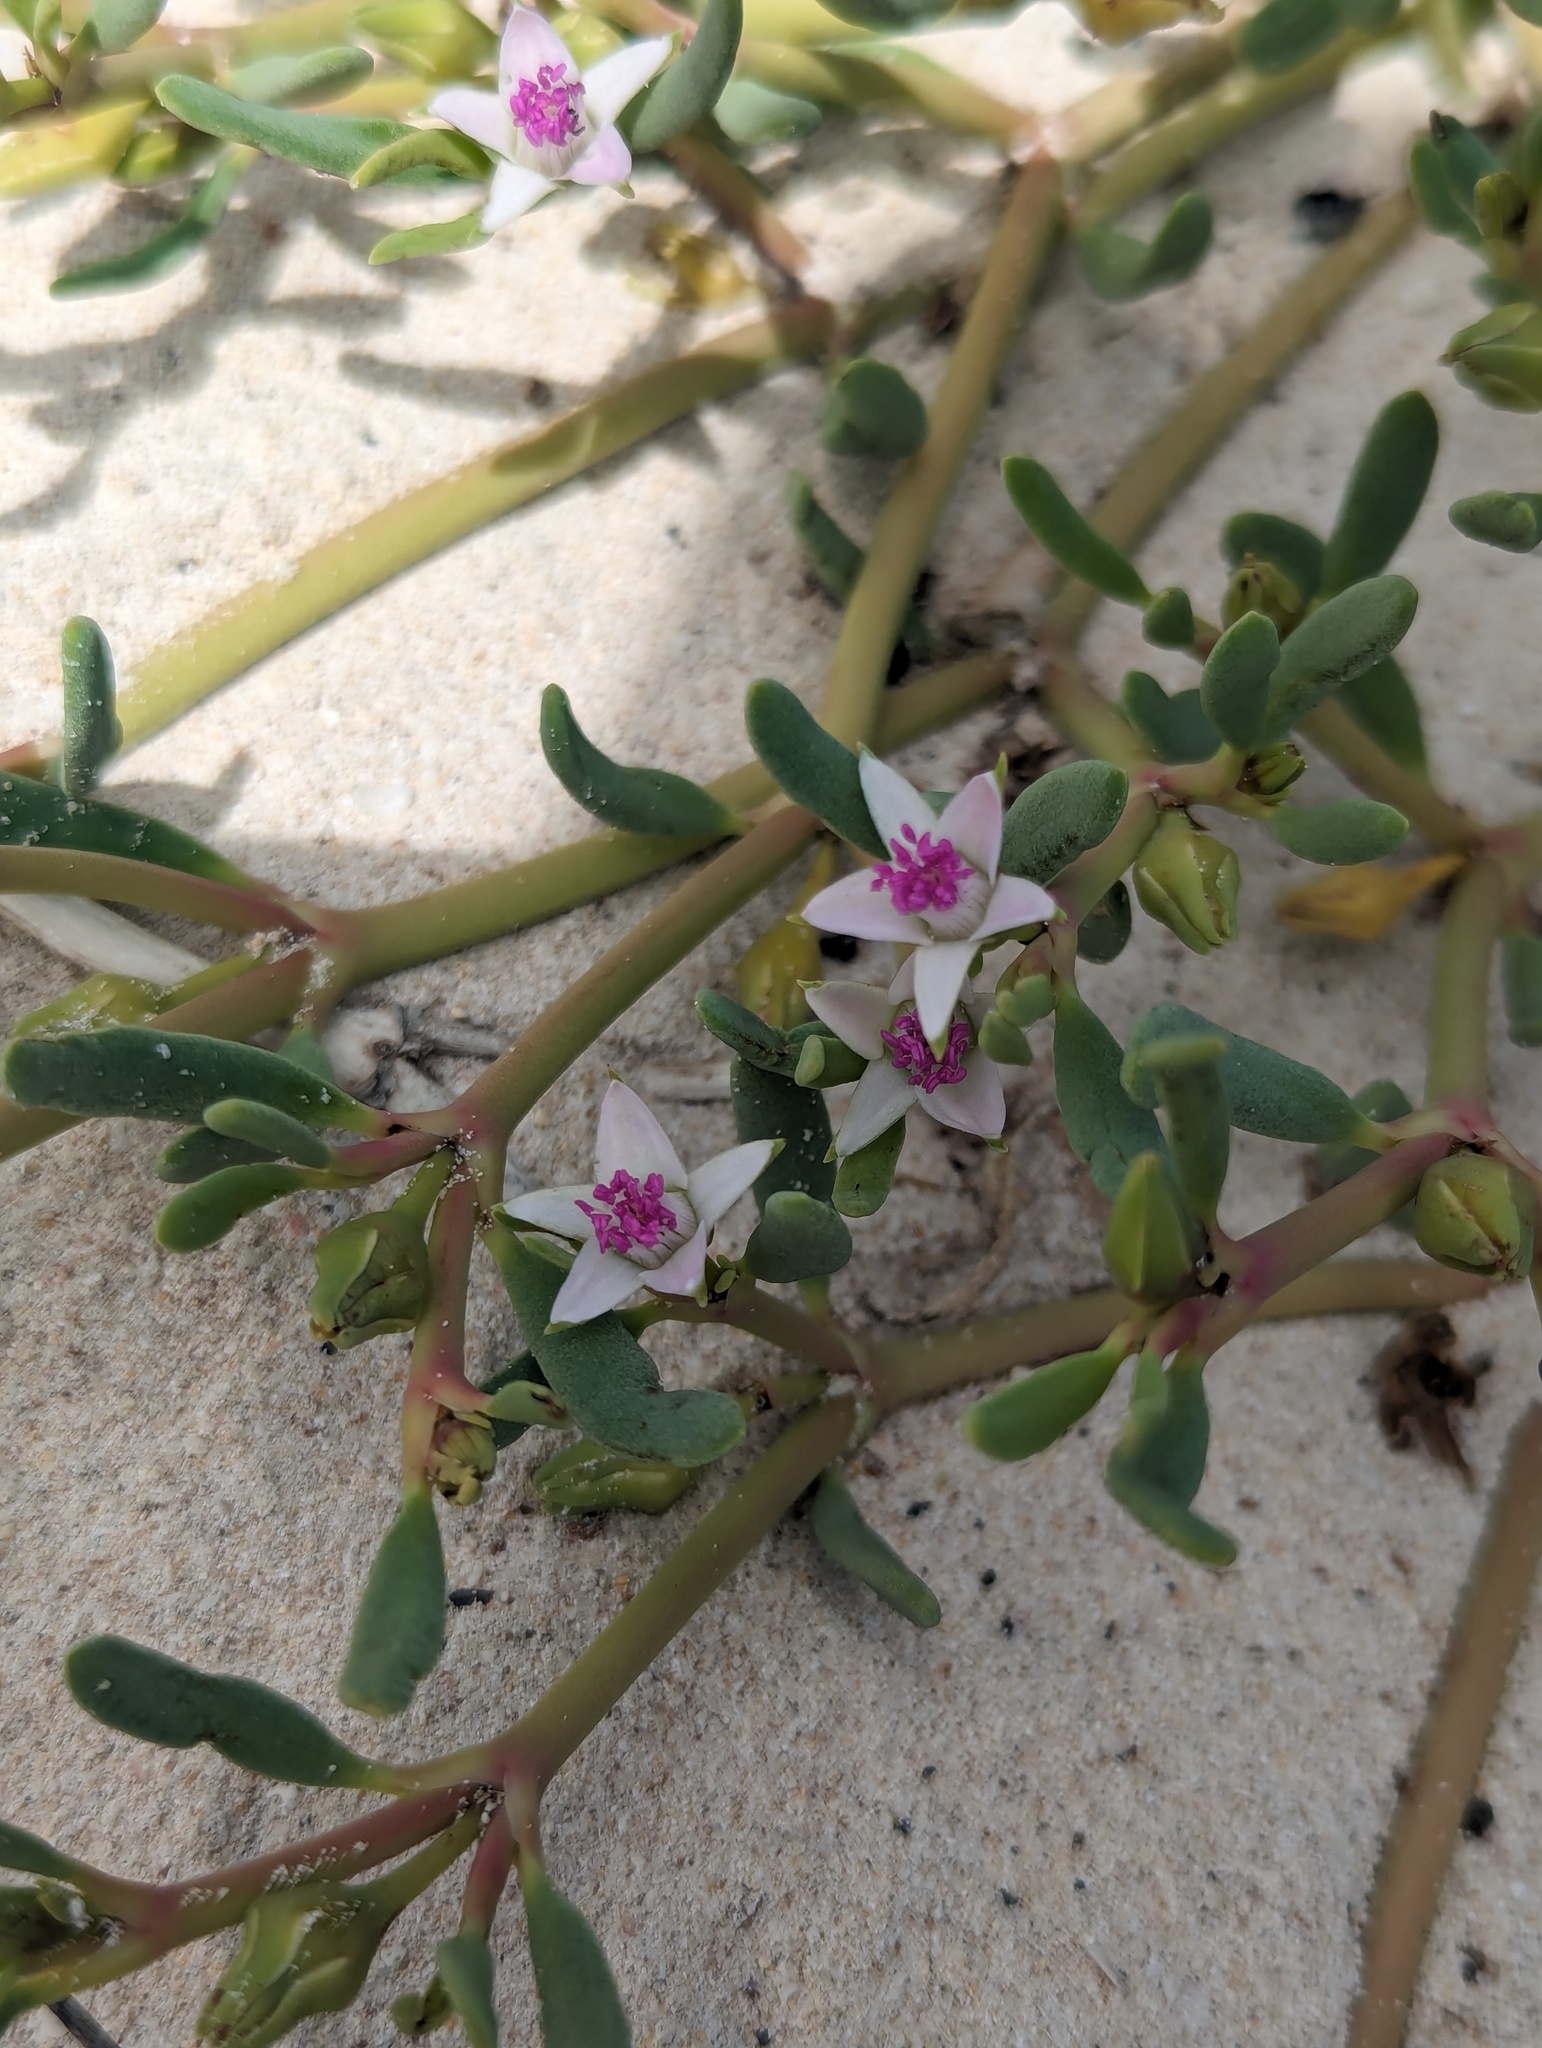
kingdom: Plantae
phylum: Tracheophyta
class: Magnoliopsida
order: Caryophyllales
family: Aizoaceae
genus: Sesuvium
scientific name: Sesuvium portulacastrum
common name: Sea-purslane
